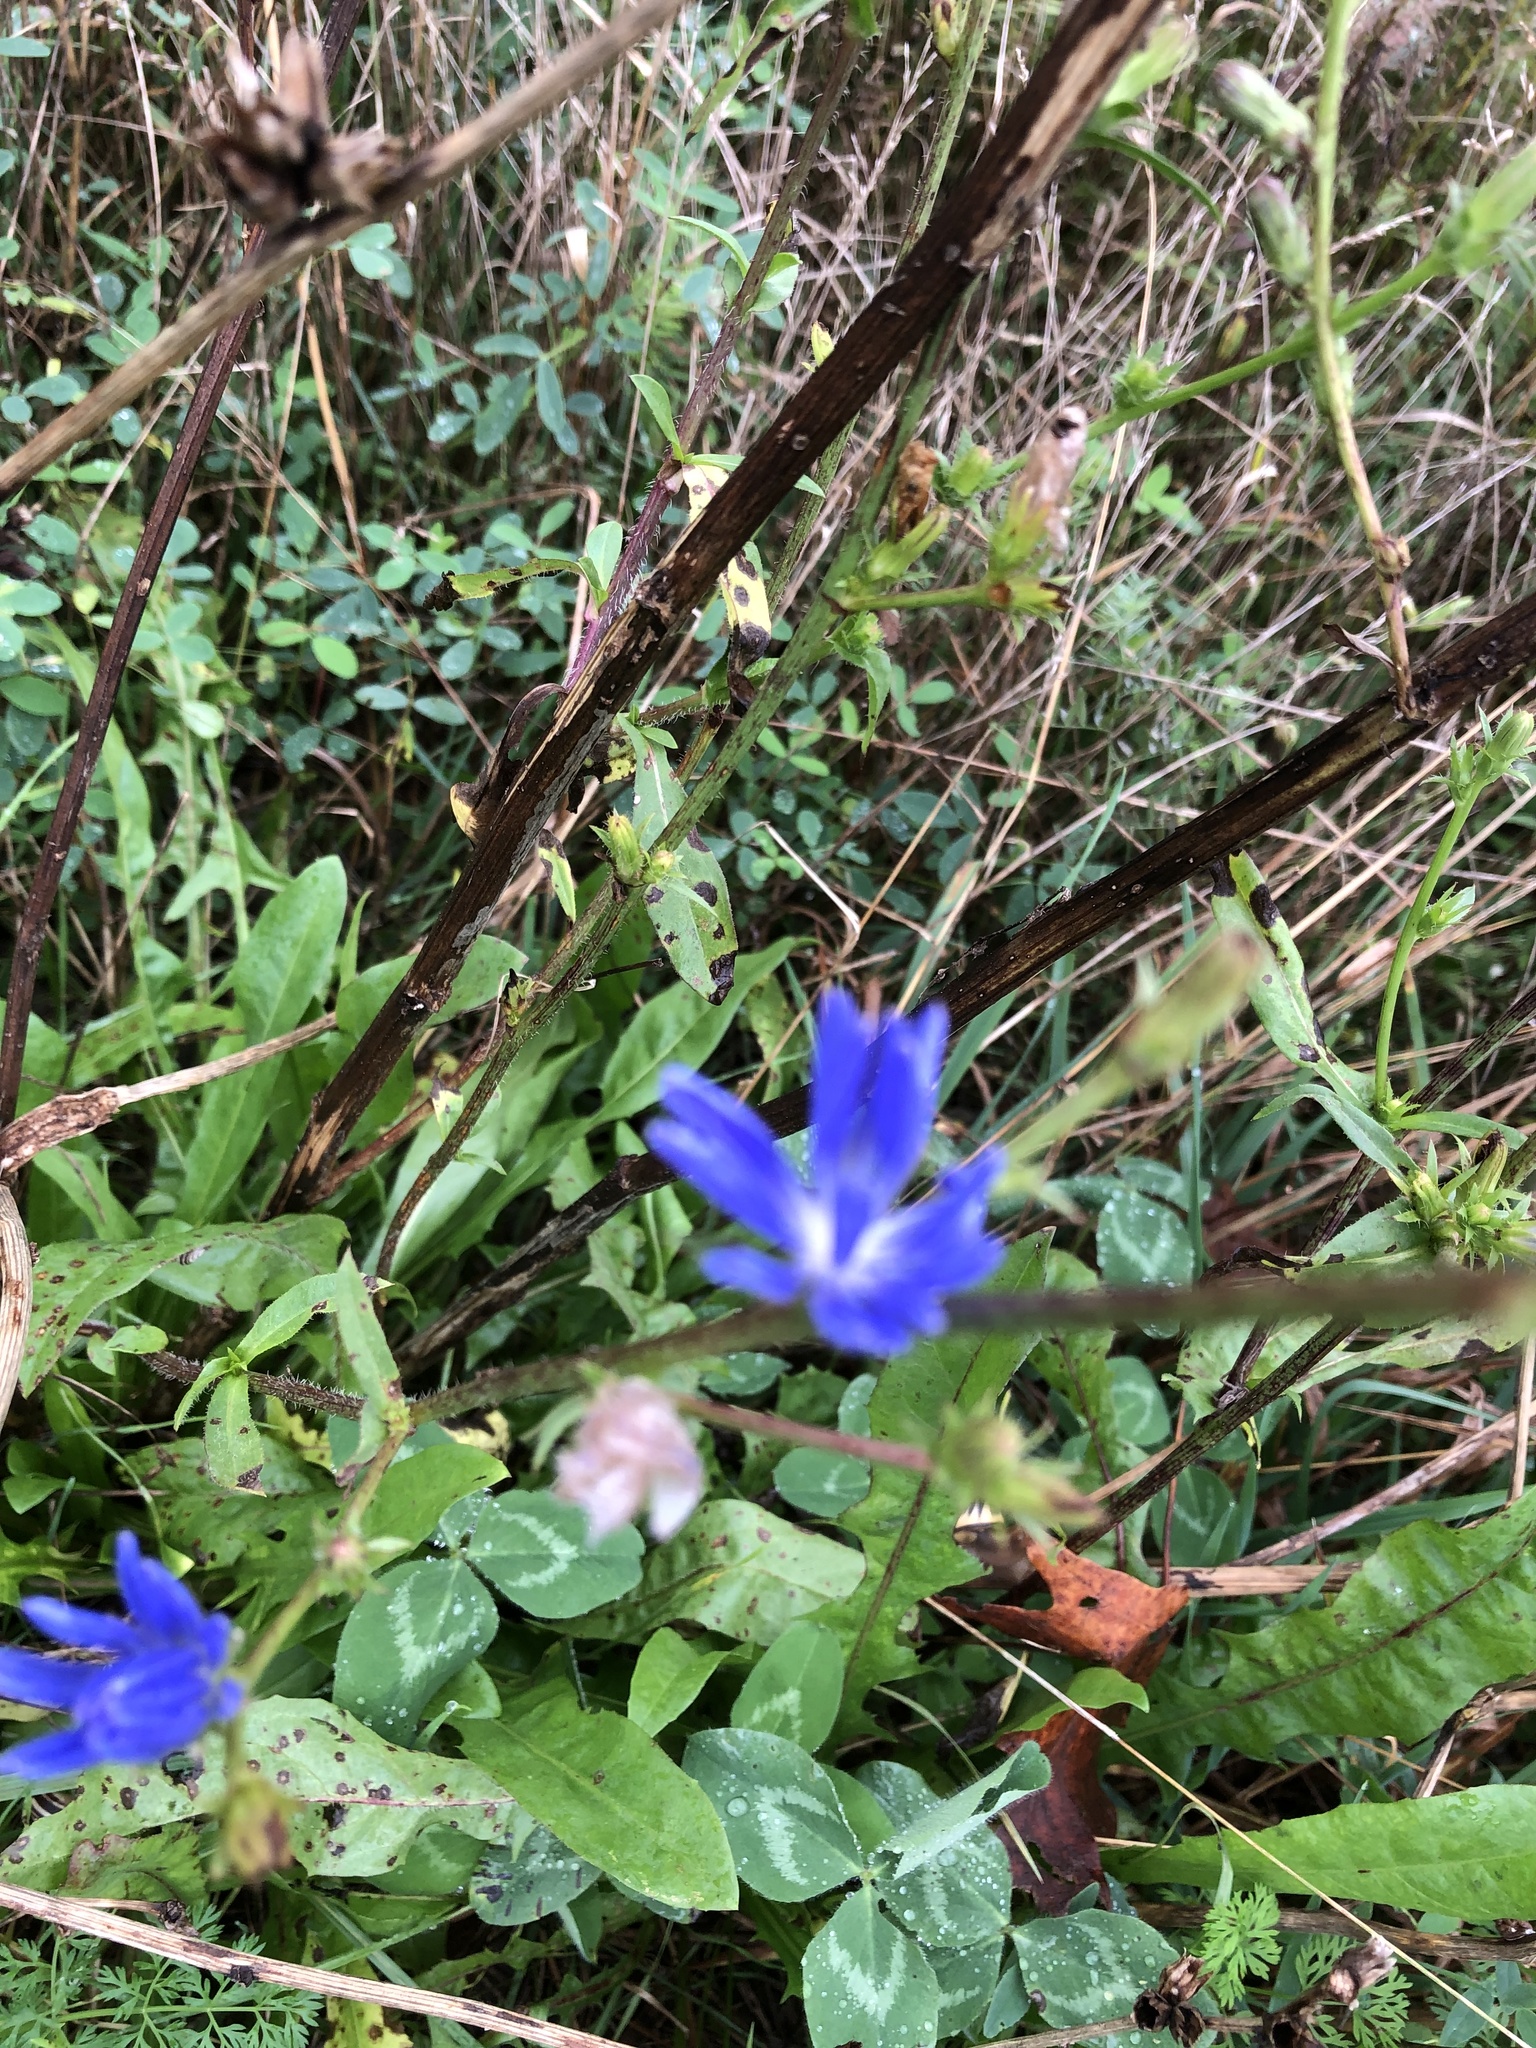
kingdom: Plantae
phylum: Tracheophyta
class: Magnoliopsida
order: Asterales
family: Asteraceae
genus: Cichorium
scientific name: Cichorium intybus
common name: Chicory
